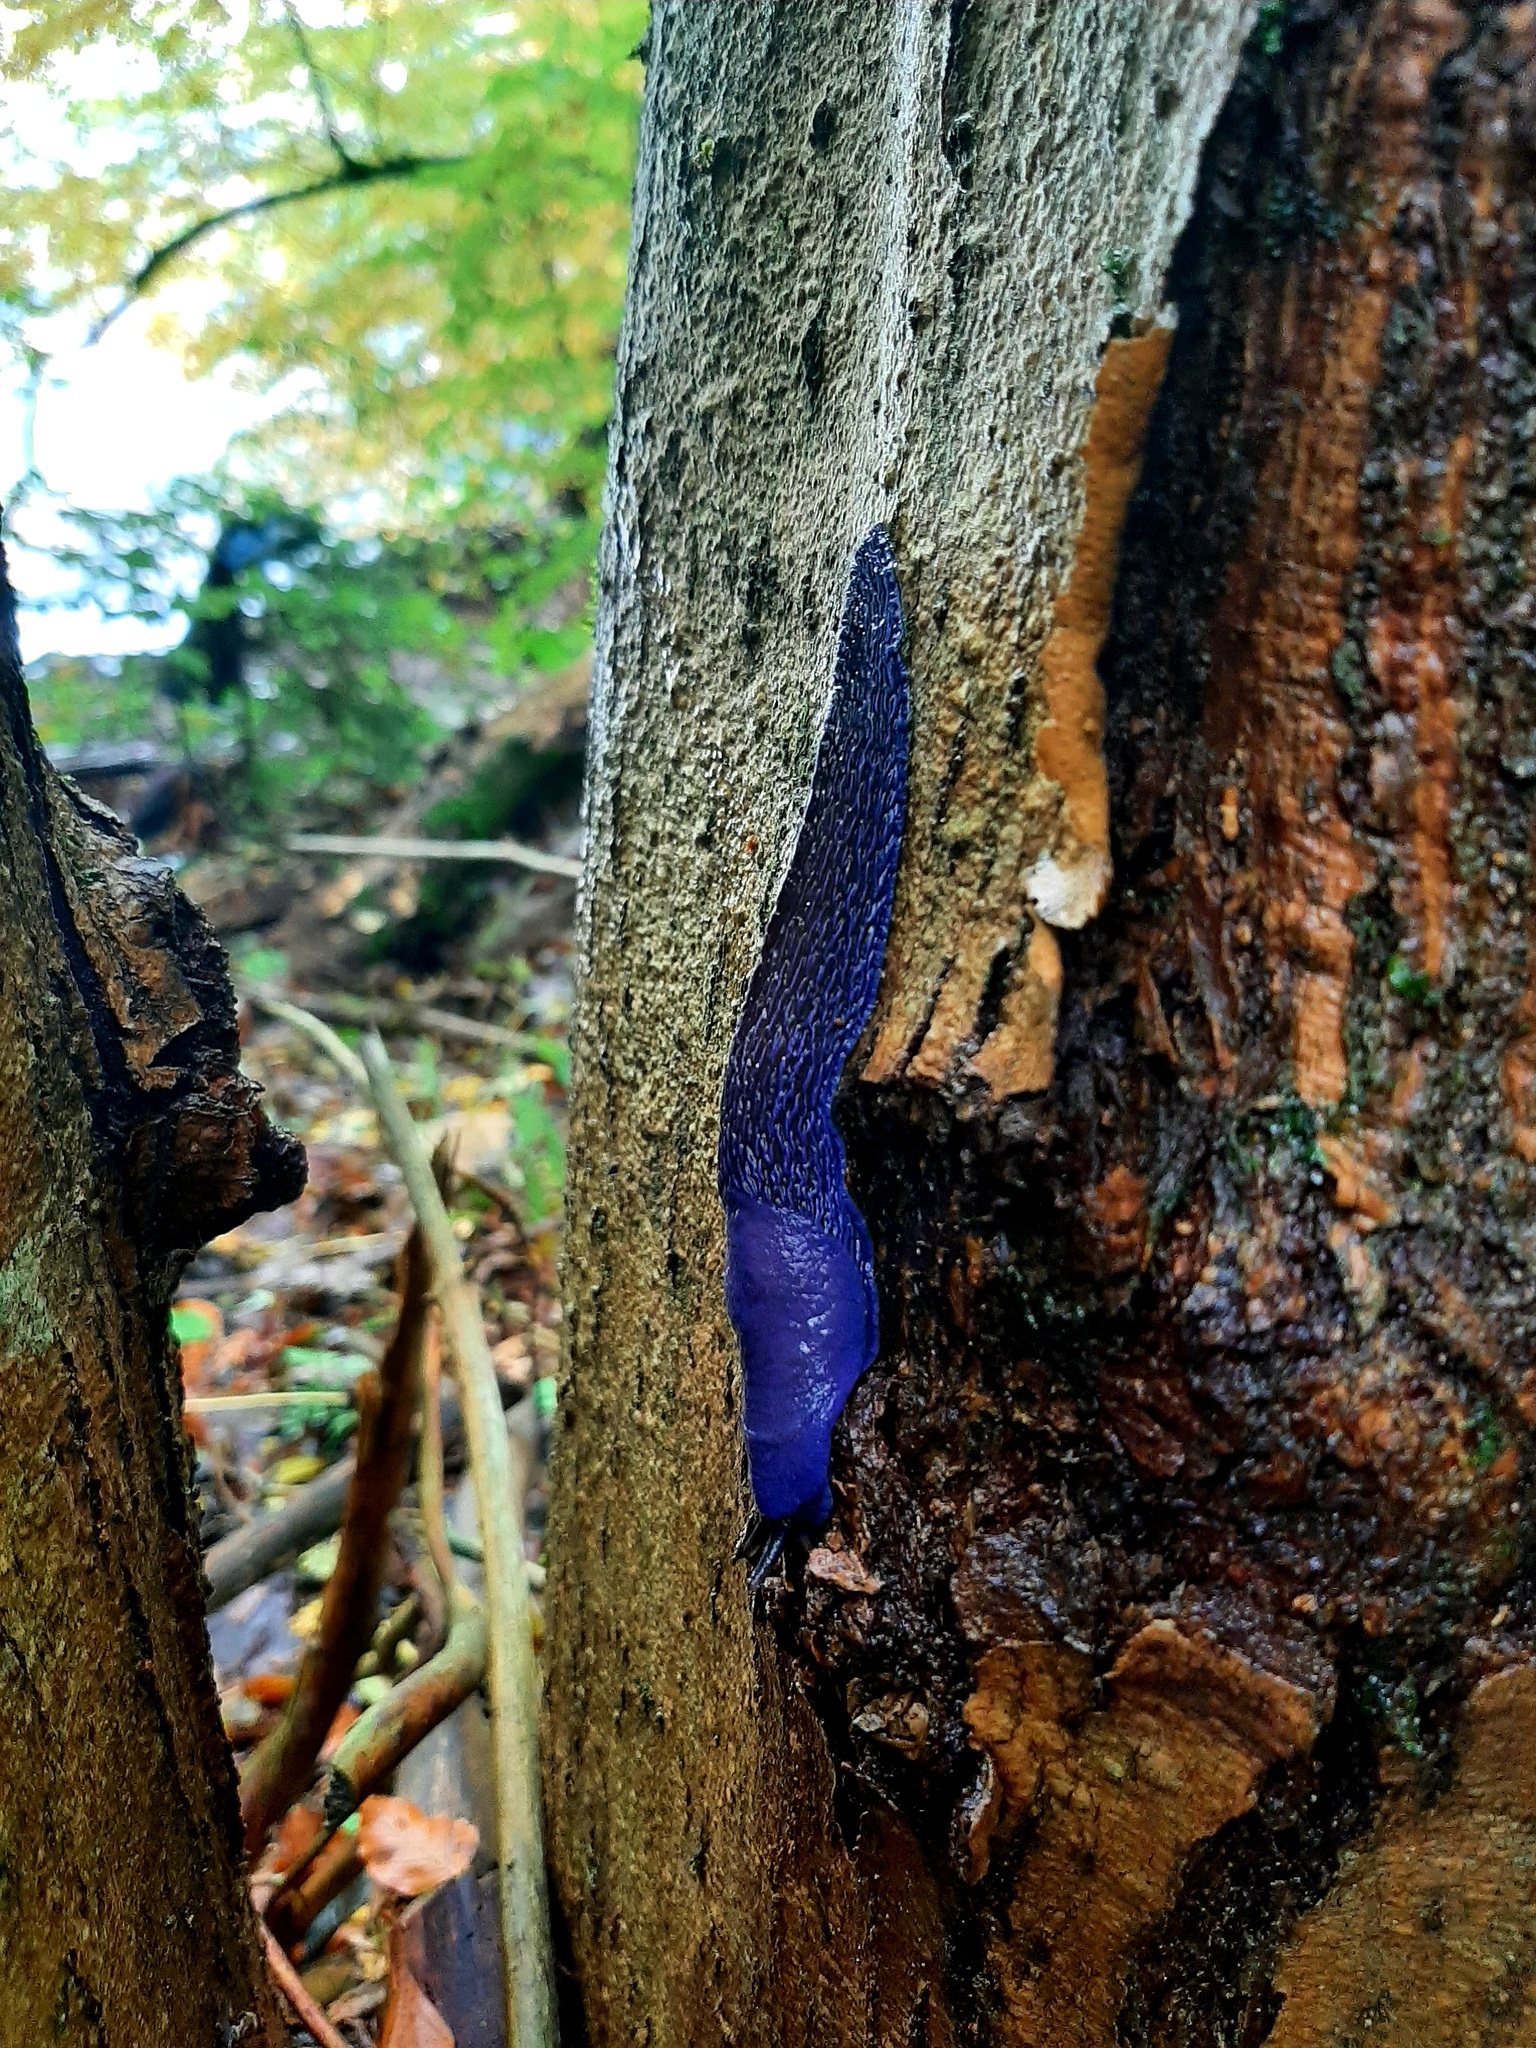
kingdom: Animalia
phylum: Mollusca
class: Gastropoda
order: Stylommatophora
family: Limacidae
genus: Bielzia
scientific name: Bielzia coerulans
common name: Carpathian blue slug
